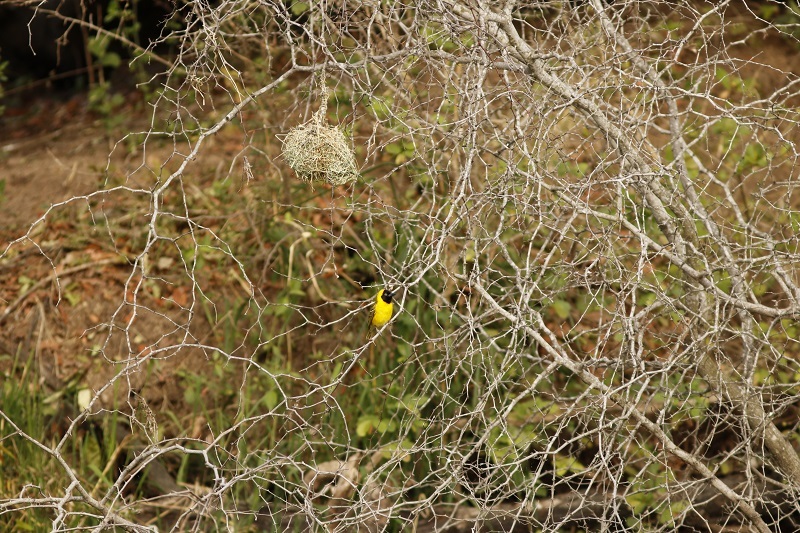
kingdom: Animalia
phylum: Chordata
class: Aves
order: Passeriformes
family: Ploceidae
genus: Ploceus
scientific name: Ploceus intermedius
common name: Lesser masked weaver
